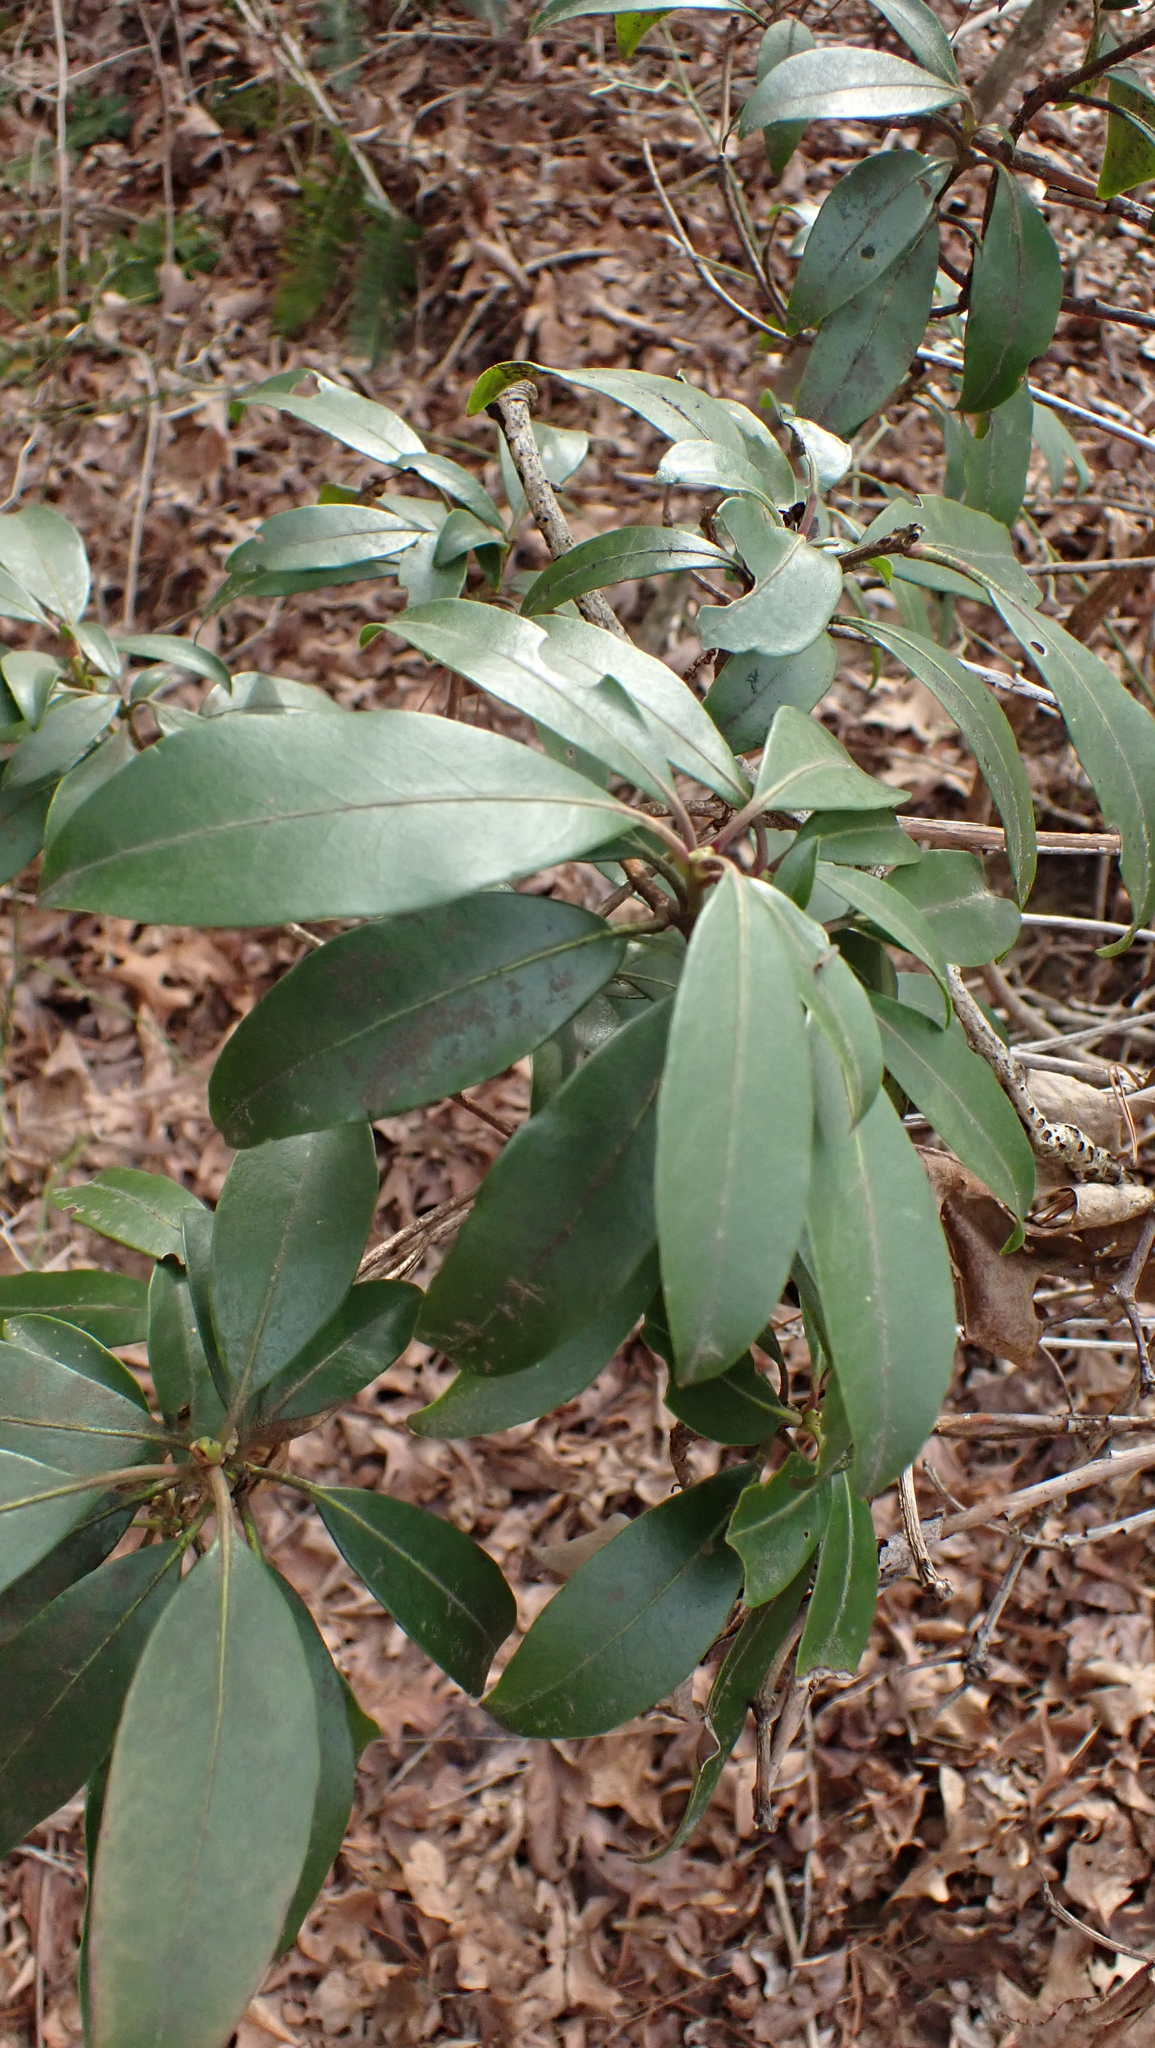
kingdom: Plantae
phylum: Tracheophyta
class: Magnoliopsida
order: Ericales
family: Ericaceae
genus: Kalmia
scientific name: Kalmia latifolia
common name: Mountain-laurel
